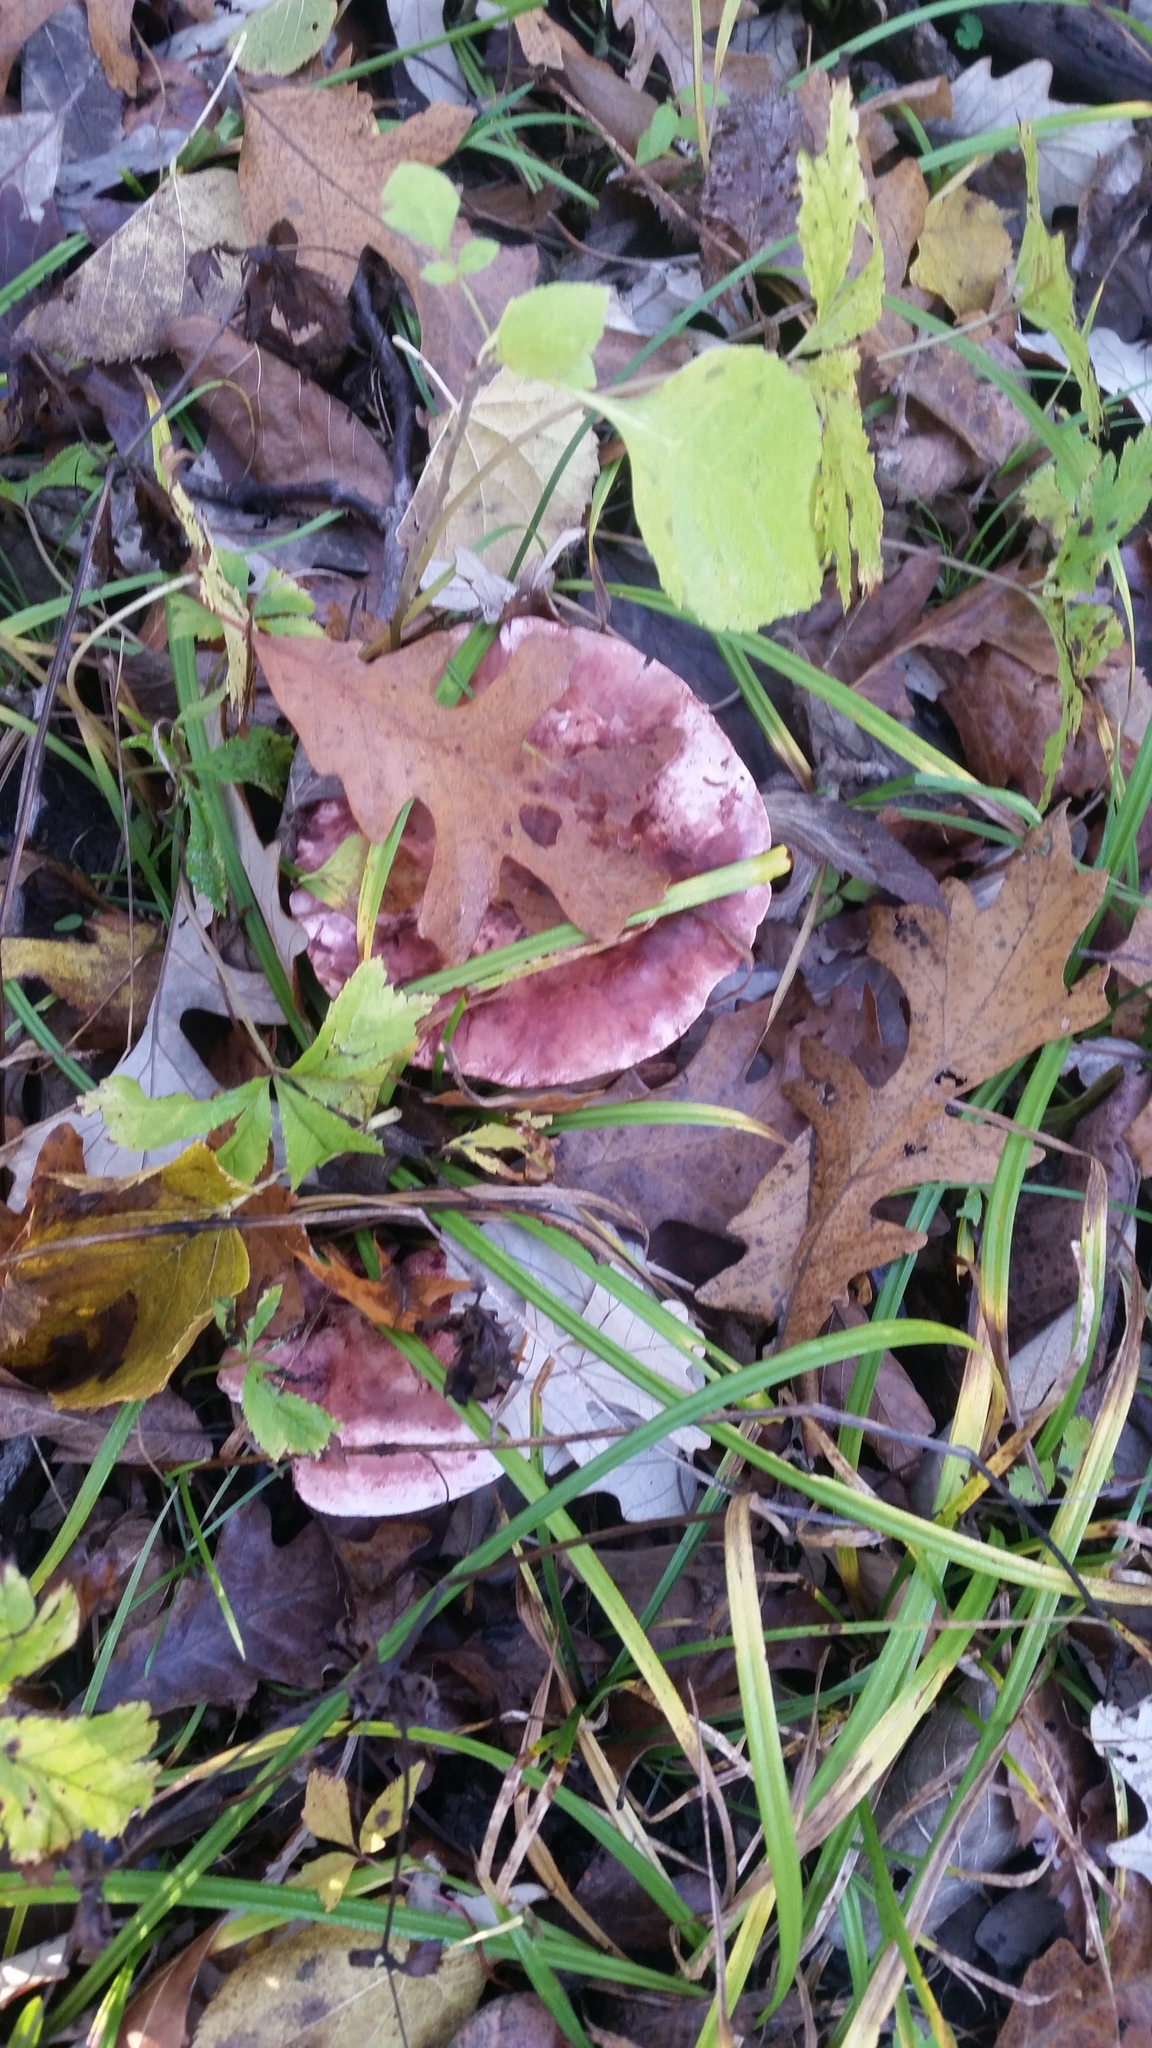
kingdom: Fungi
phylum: Basidiomycota
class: Agaricomycetes
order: Agaricales
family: Hygrophoraceae
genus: Hygrophorus
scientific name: Hygrophorus russula
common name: Pinkmottle woodwax
